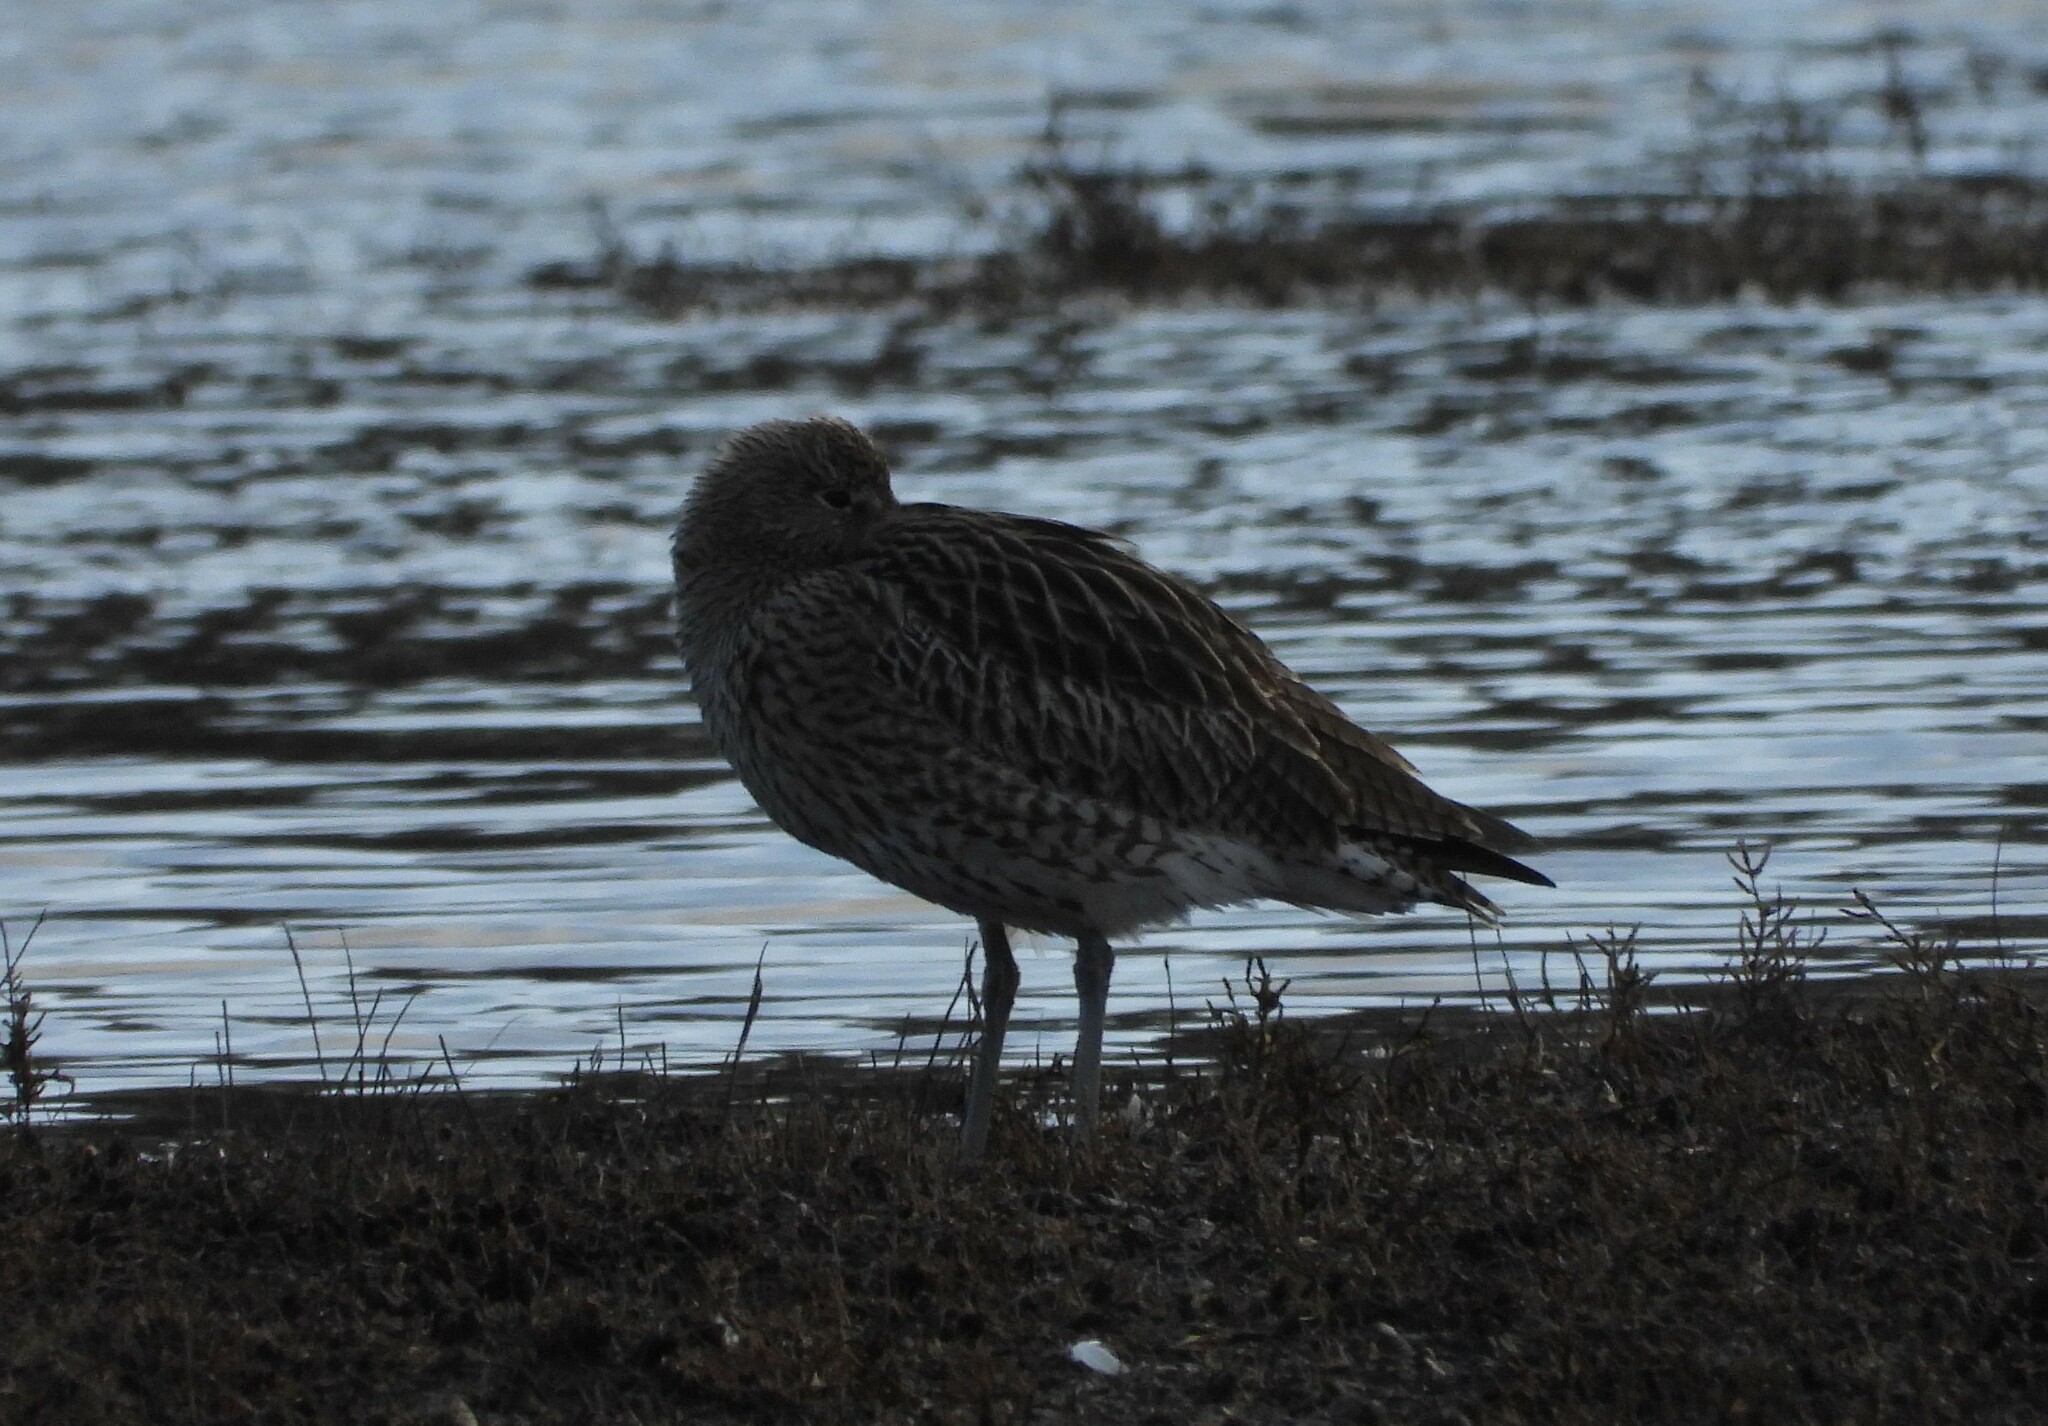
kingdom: Animalia
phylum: Chordata
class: Aves
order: Charadriiformes
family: Scolopacidae
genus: Numenius
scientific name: Numenius arquata
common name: Eurasian curlew
